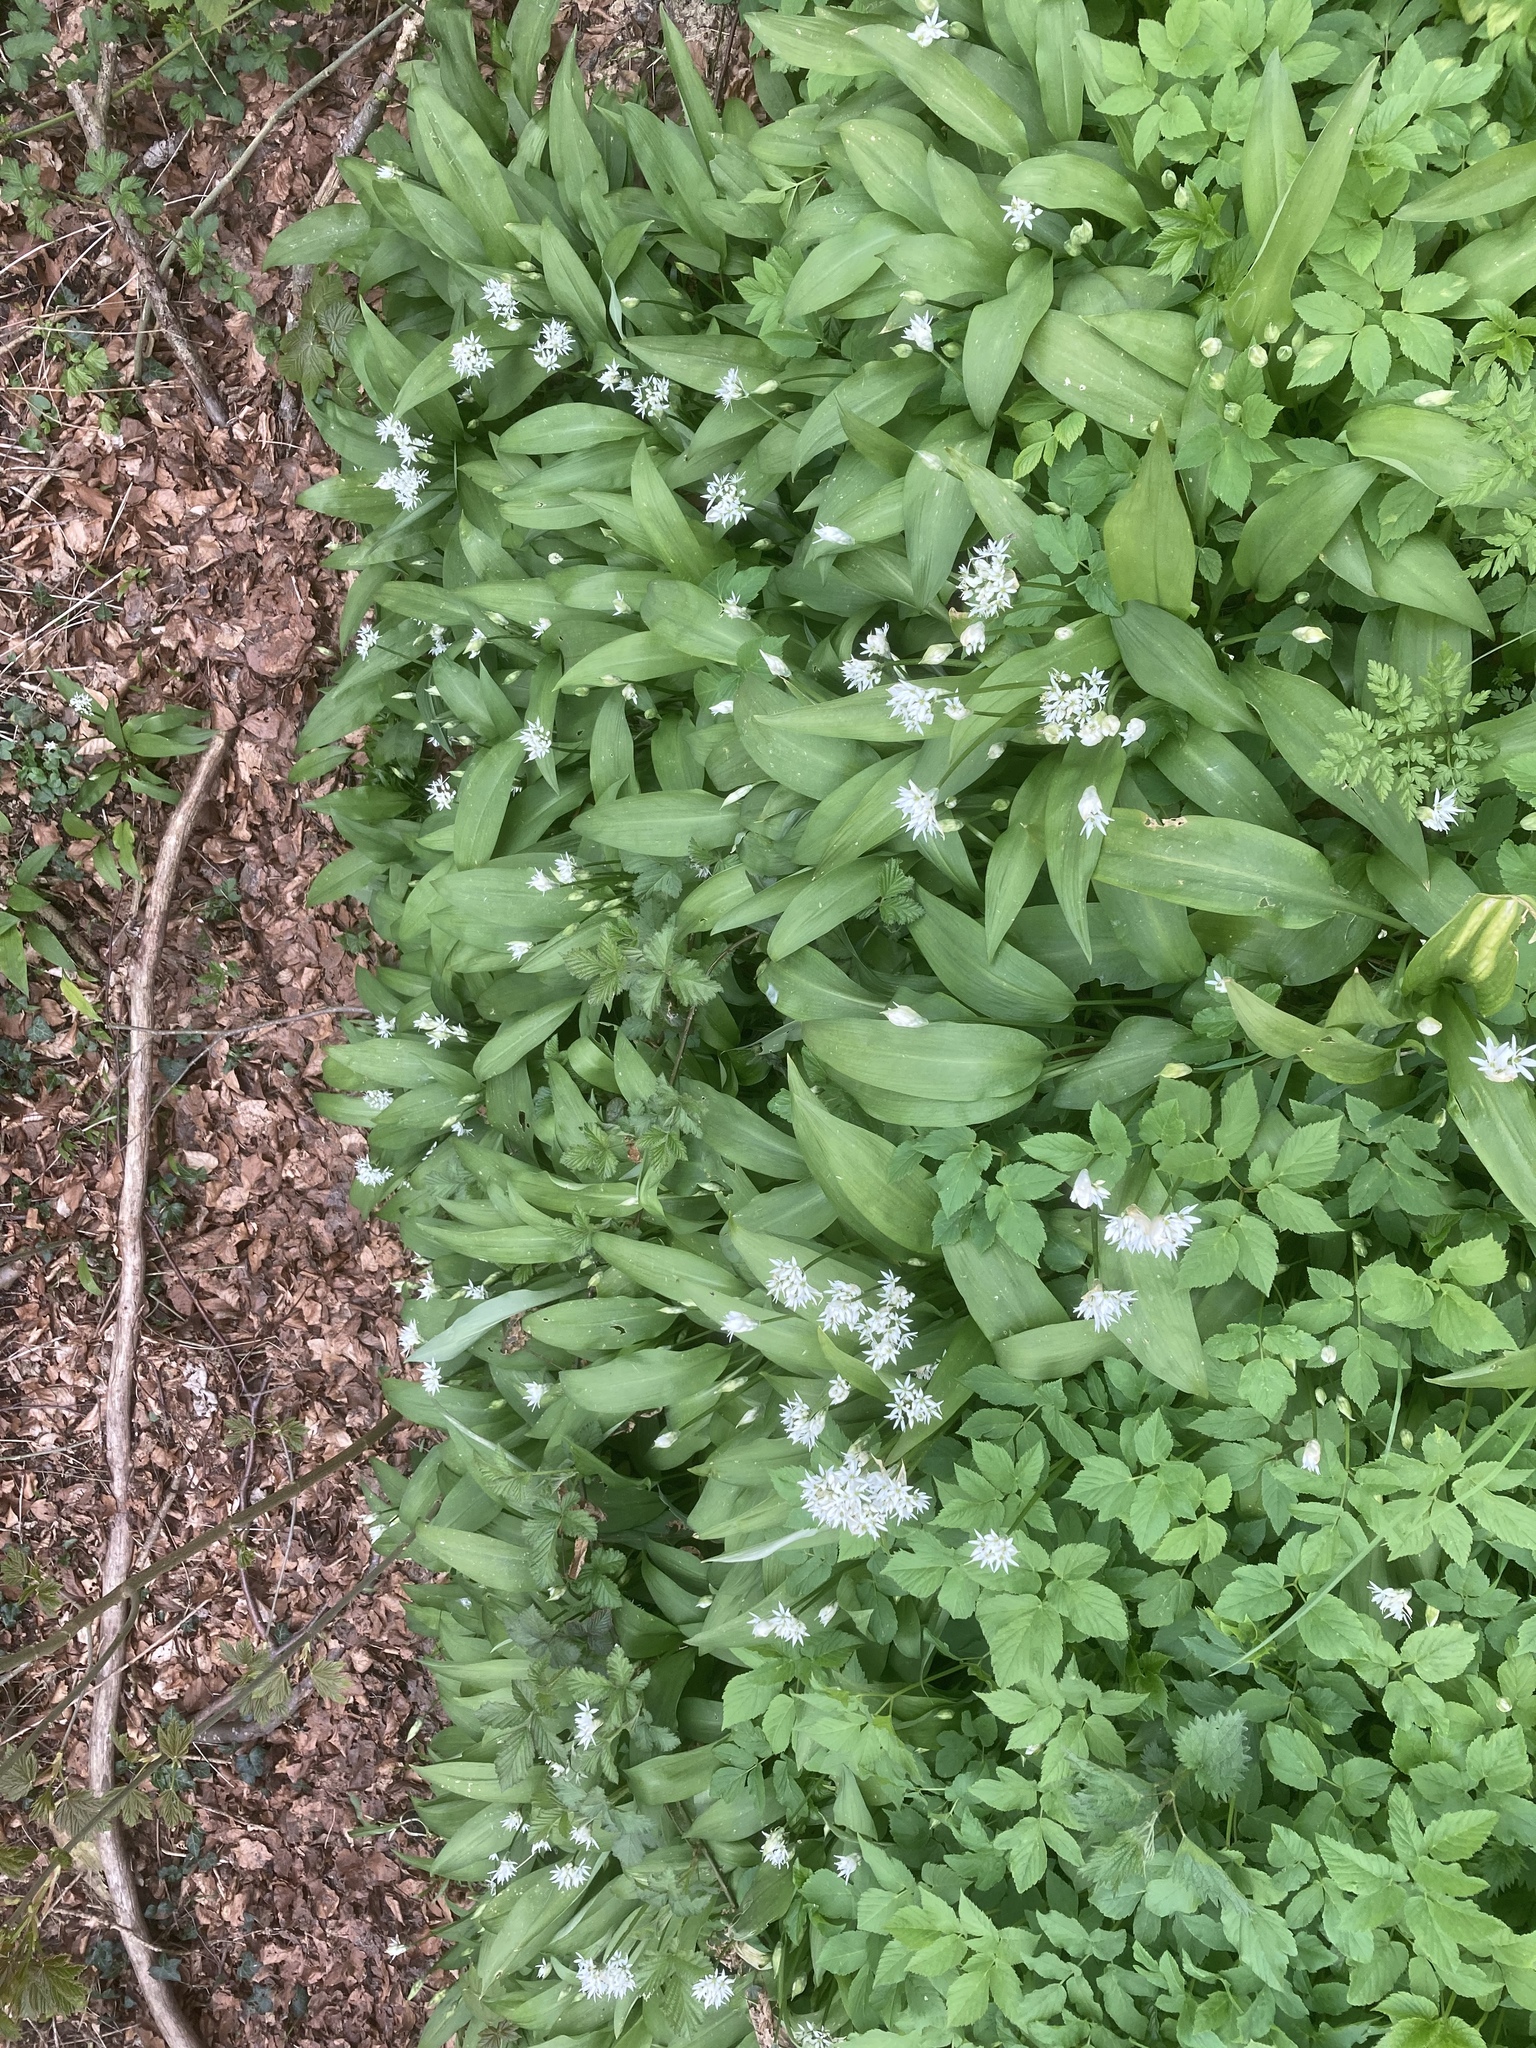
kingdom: Plantae
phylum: Tracheophyta
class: Liliopsida
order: Asparagales
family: Amaryllidaceae
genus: Allium
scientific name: Allium ursinum
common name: Ramsons
